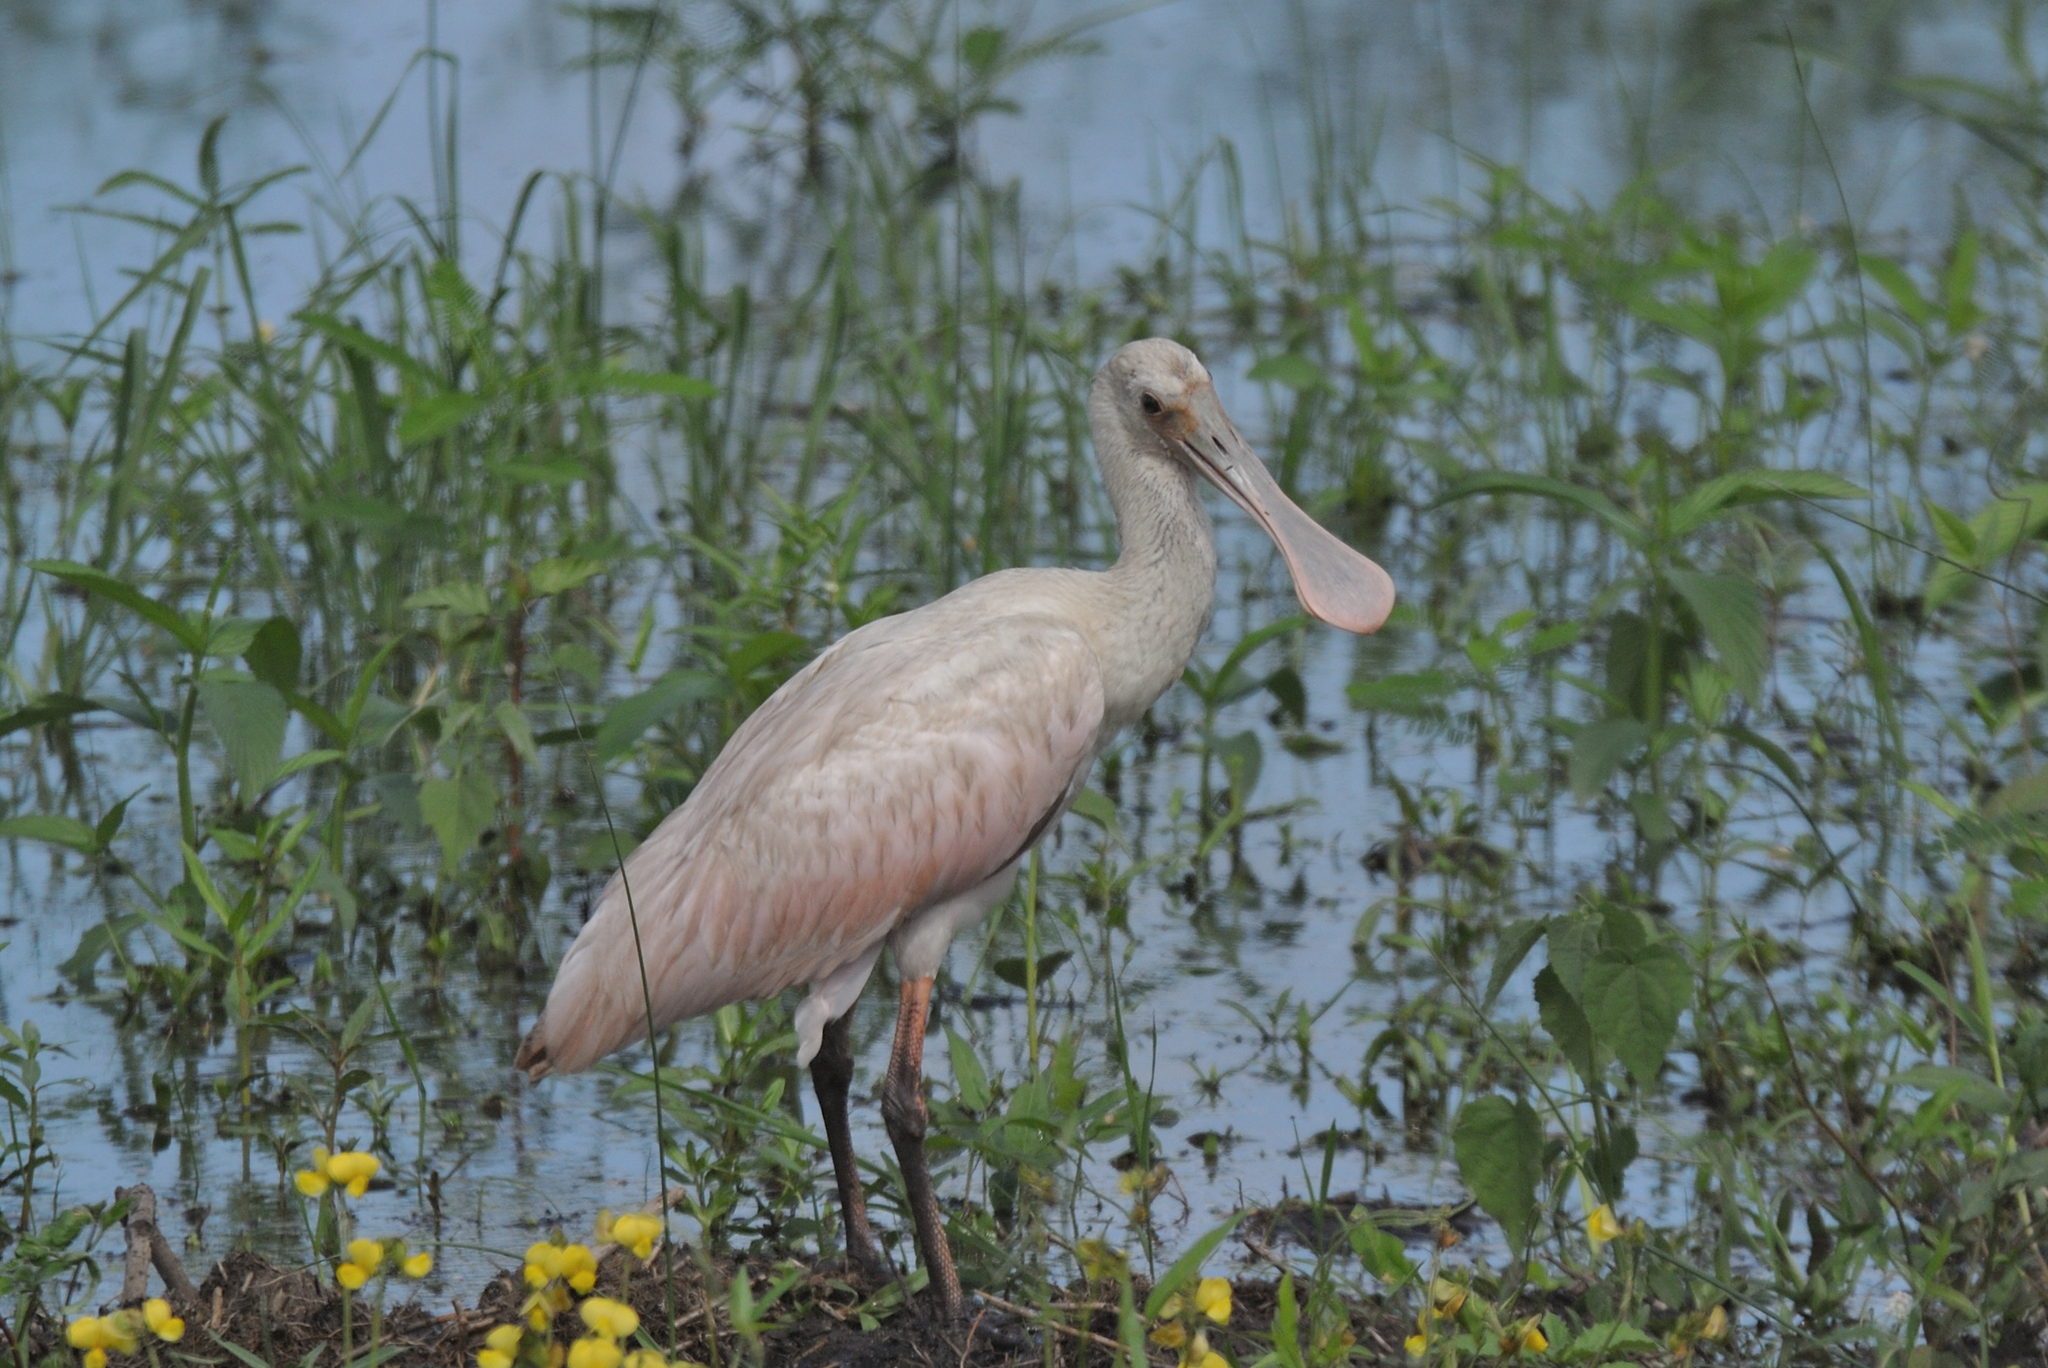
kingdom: Animalia
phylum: Chordata
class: Aves
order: Pelecaniformes
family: Threskiornithidae
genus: Platalea
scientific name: Platalea ajaja
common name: Roseate spoonbill
